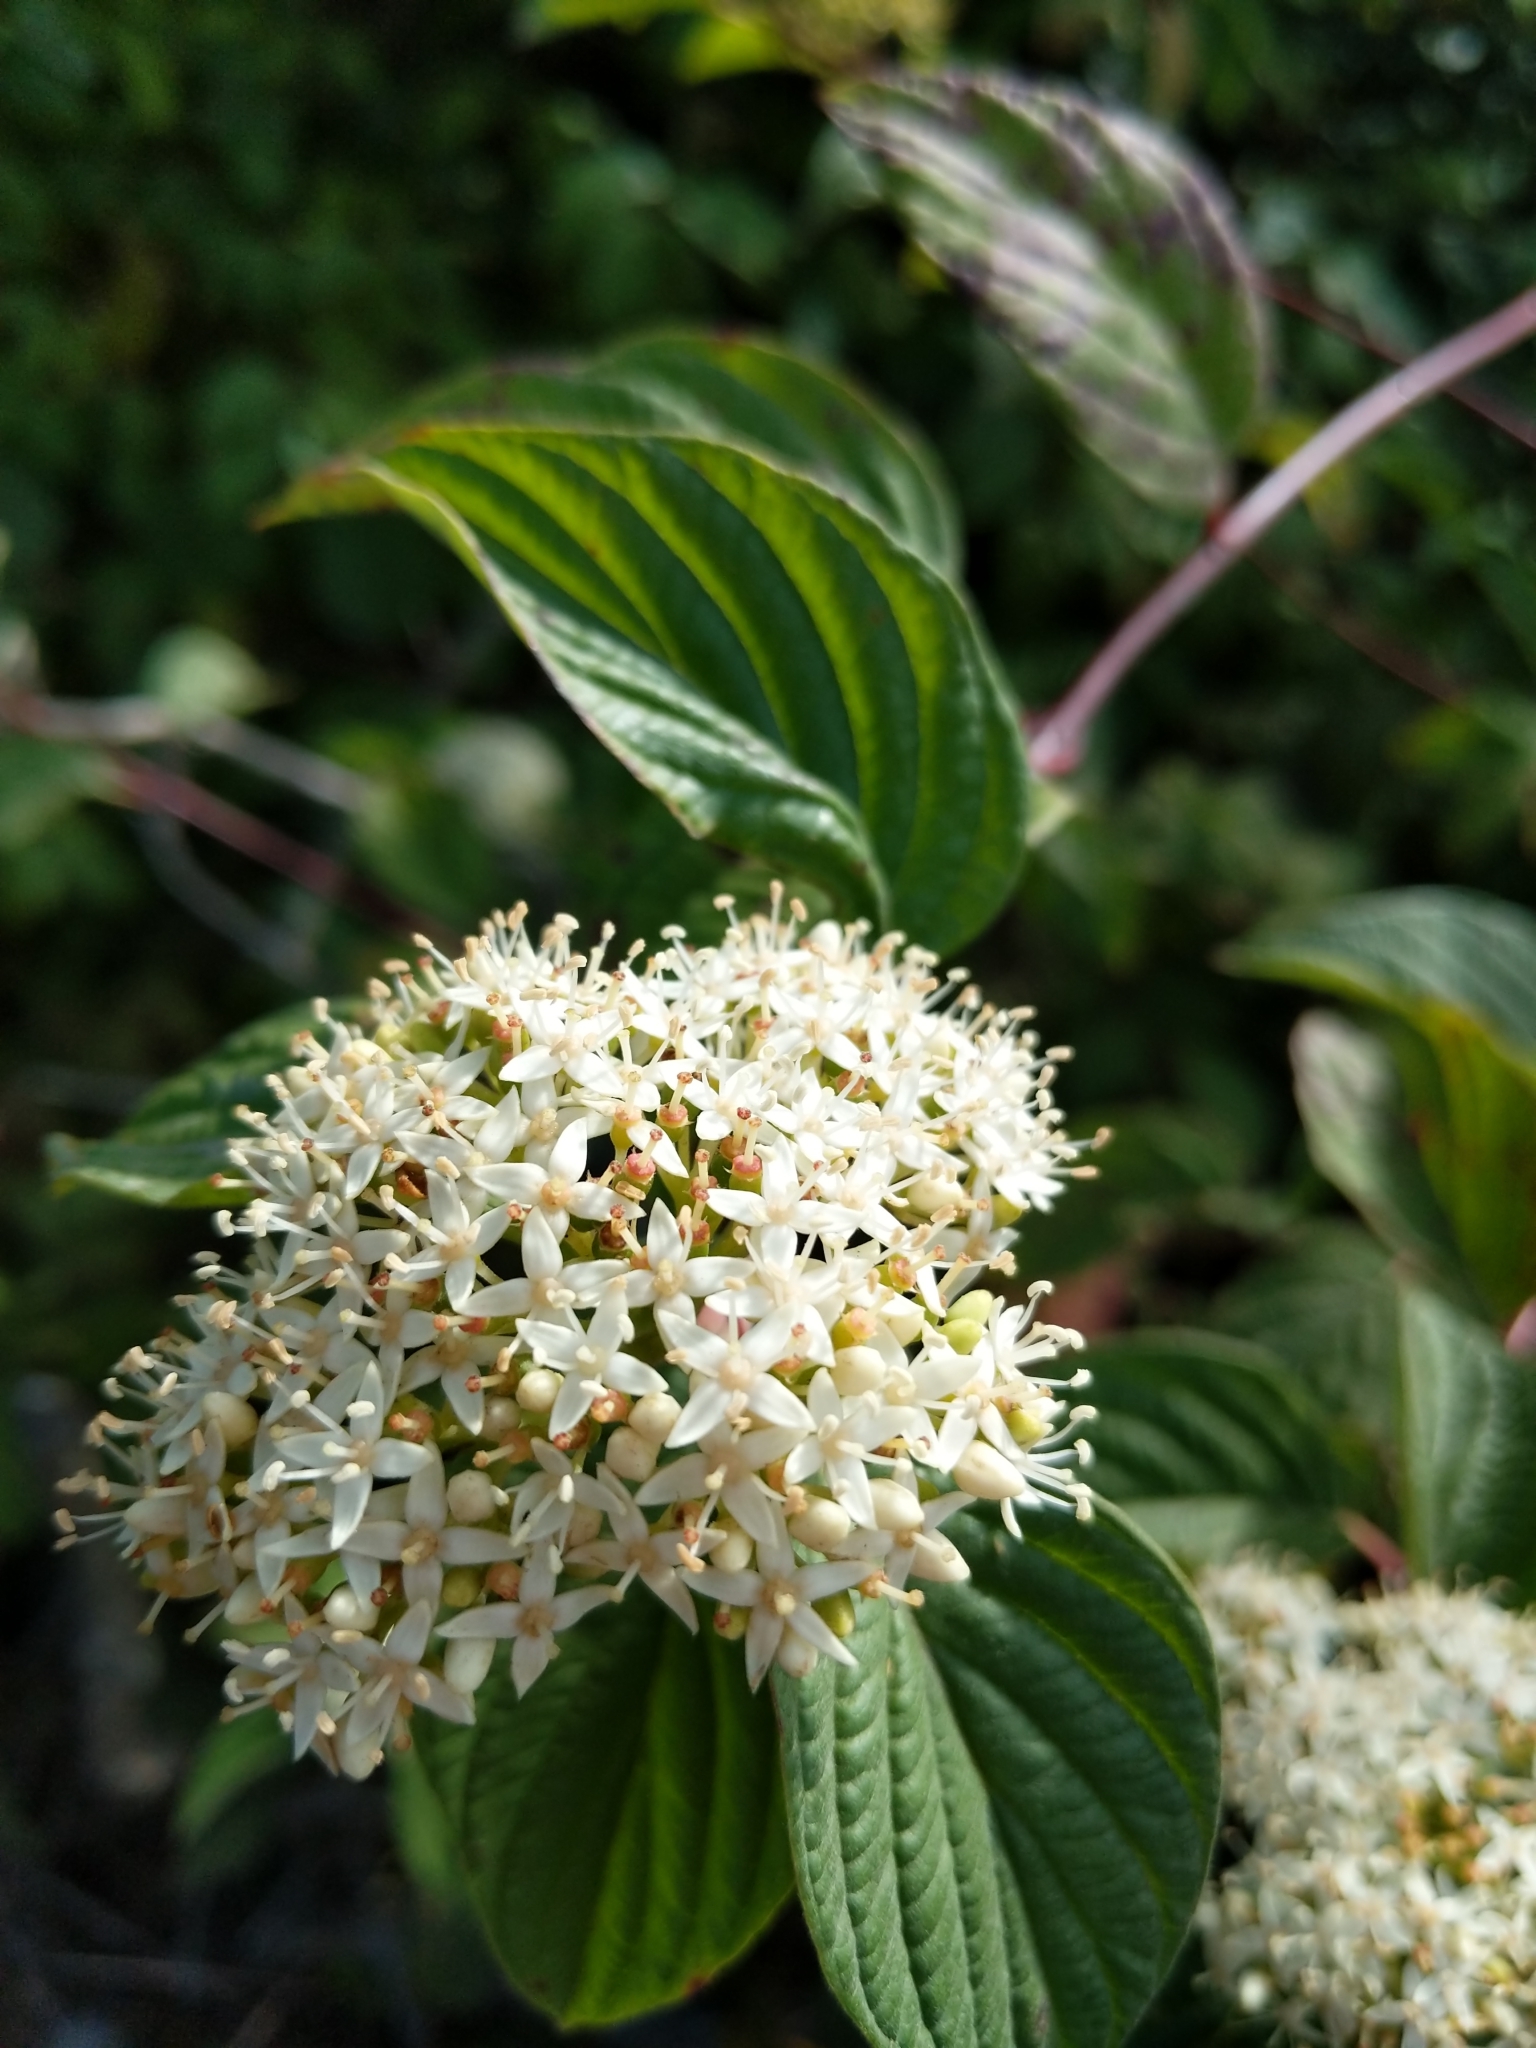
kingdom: Plantae
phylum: Tracheophyta
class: Magnoliopsida
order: Cornales
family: Cornaceae
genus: Cornus
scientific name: Cornus sericea
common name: Red-osier dogwood
